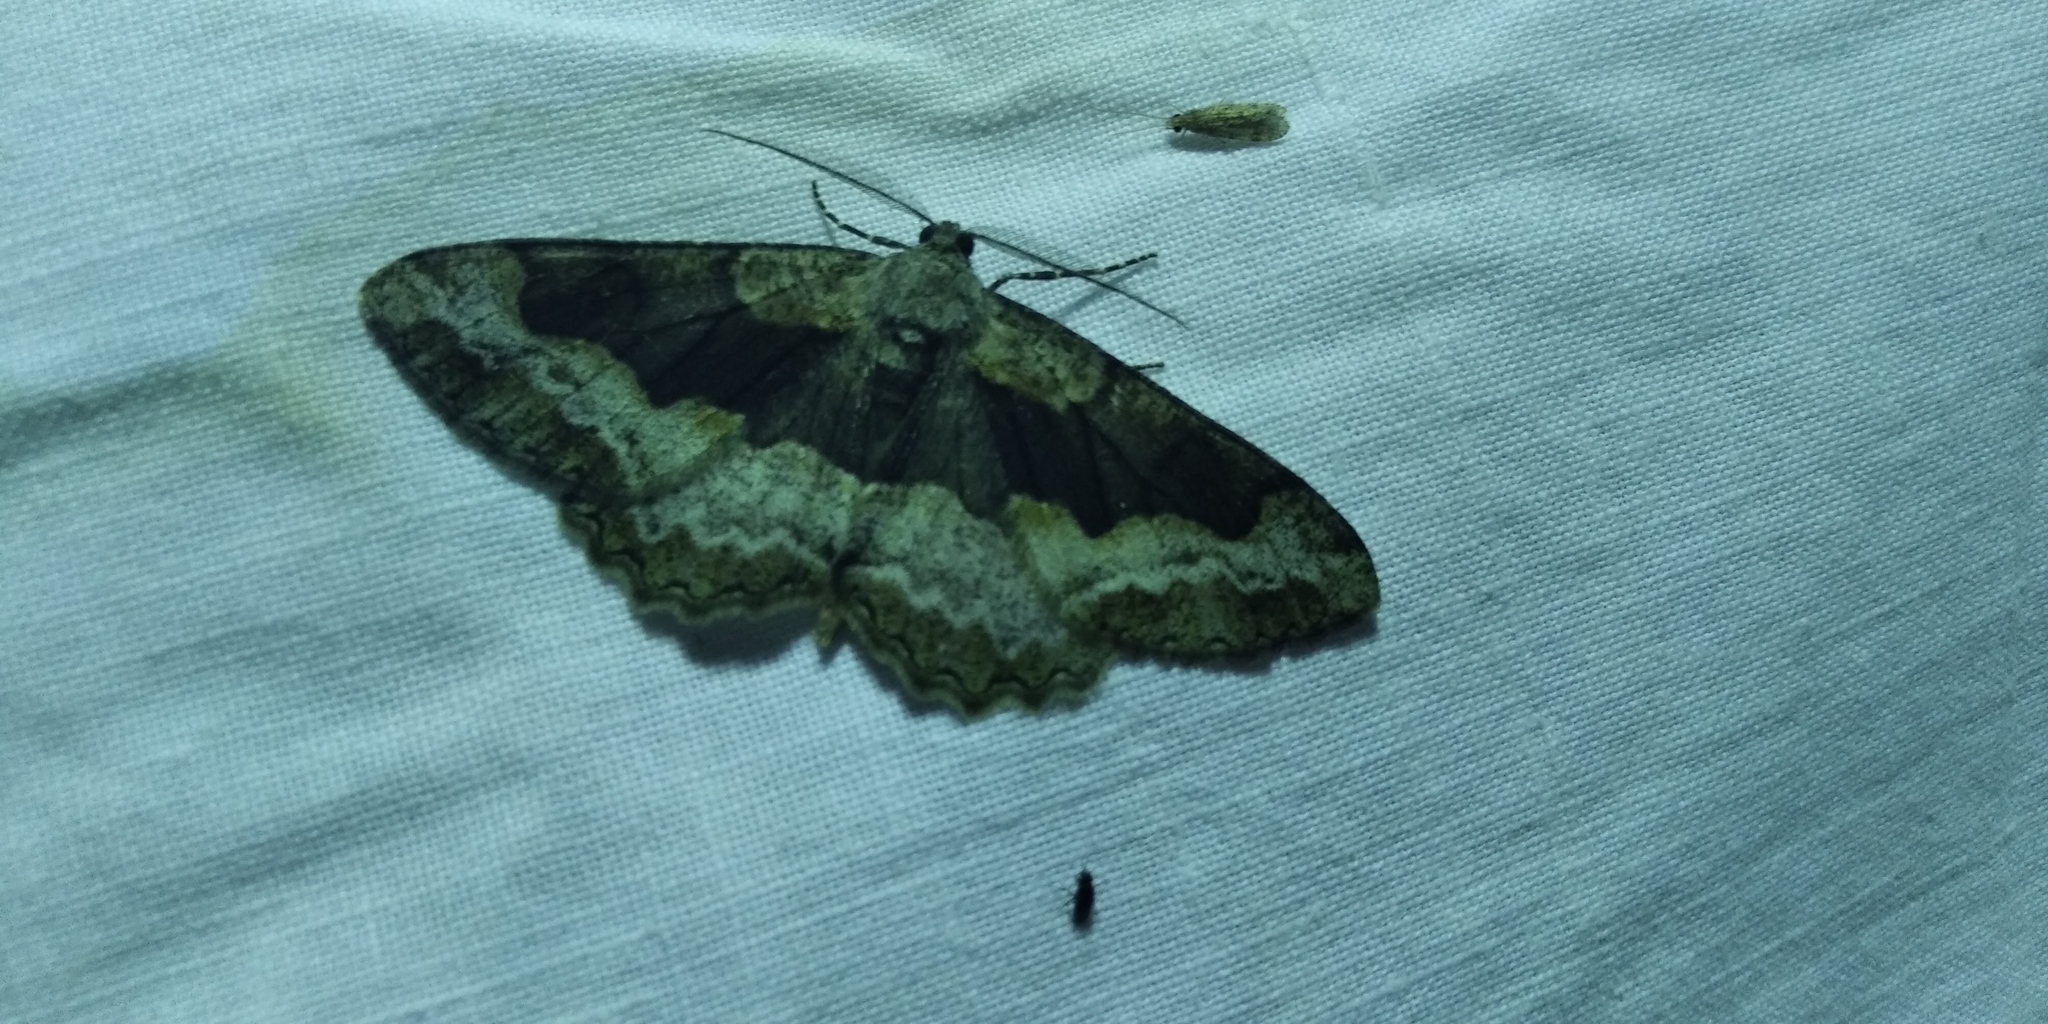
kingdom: Animalia
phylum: Arthropoda
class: Insecta
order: Lepidoptera
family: Geometridae
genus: Alcis
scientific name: Alcis repandata
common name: Mottled beauty
